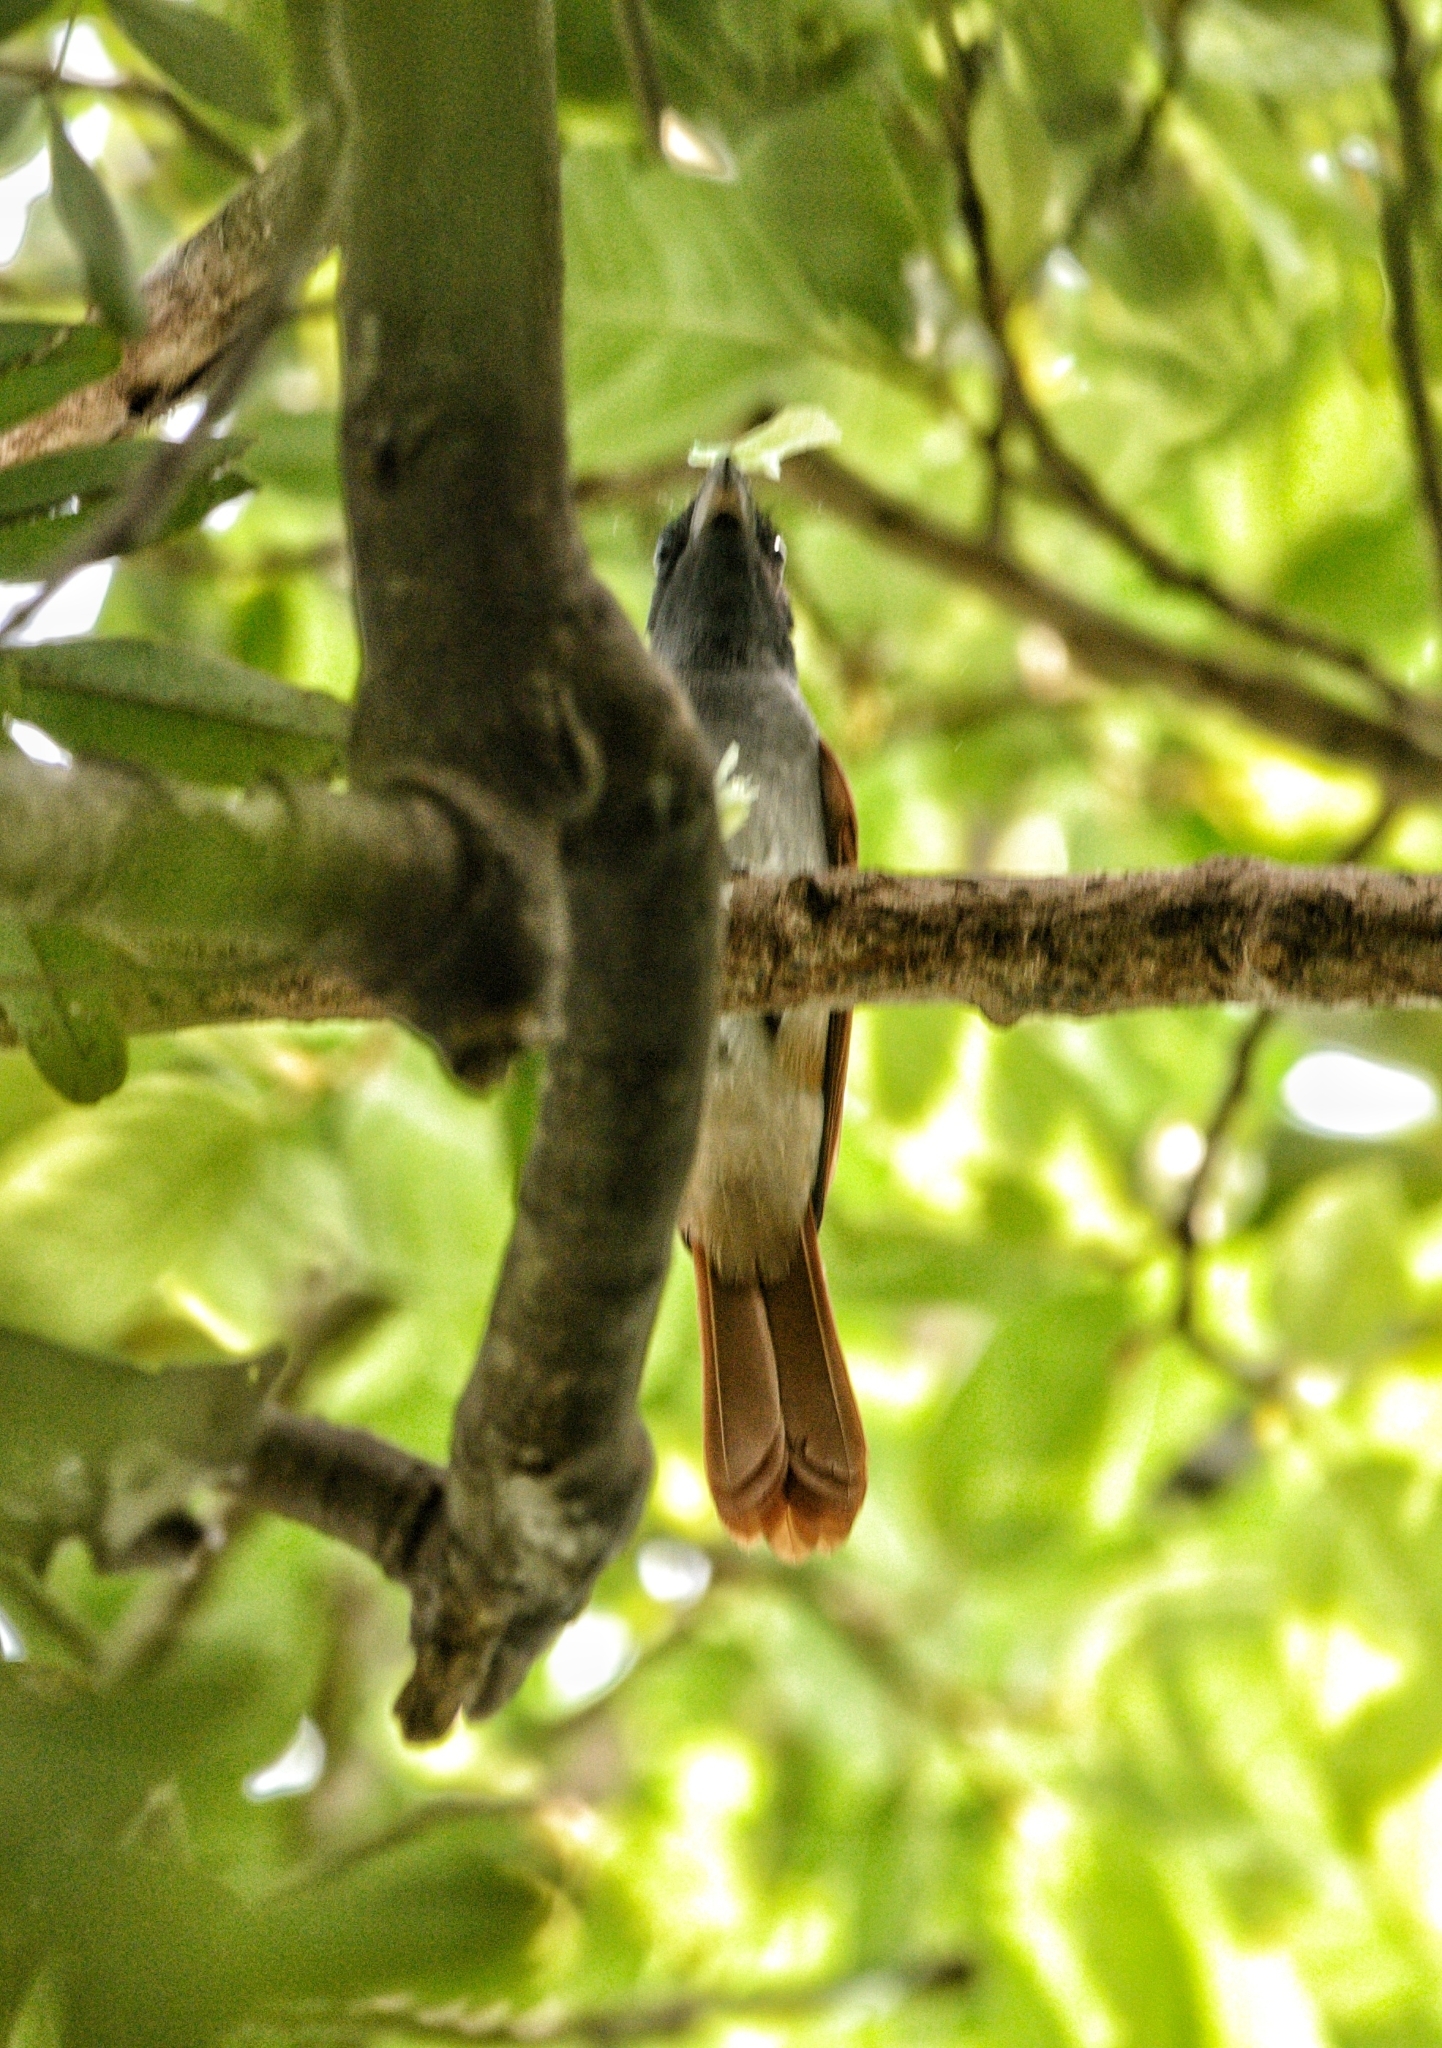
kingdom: Animalia
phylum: Chordata
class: Aves
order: Passeriformes
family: Monarchidae
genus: Terpsiphone
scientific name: Terpsiphone paradisi
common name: Indian paradise flycatcher
